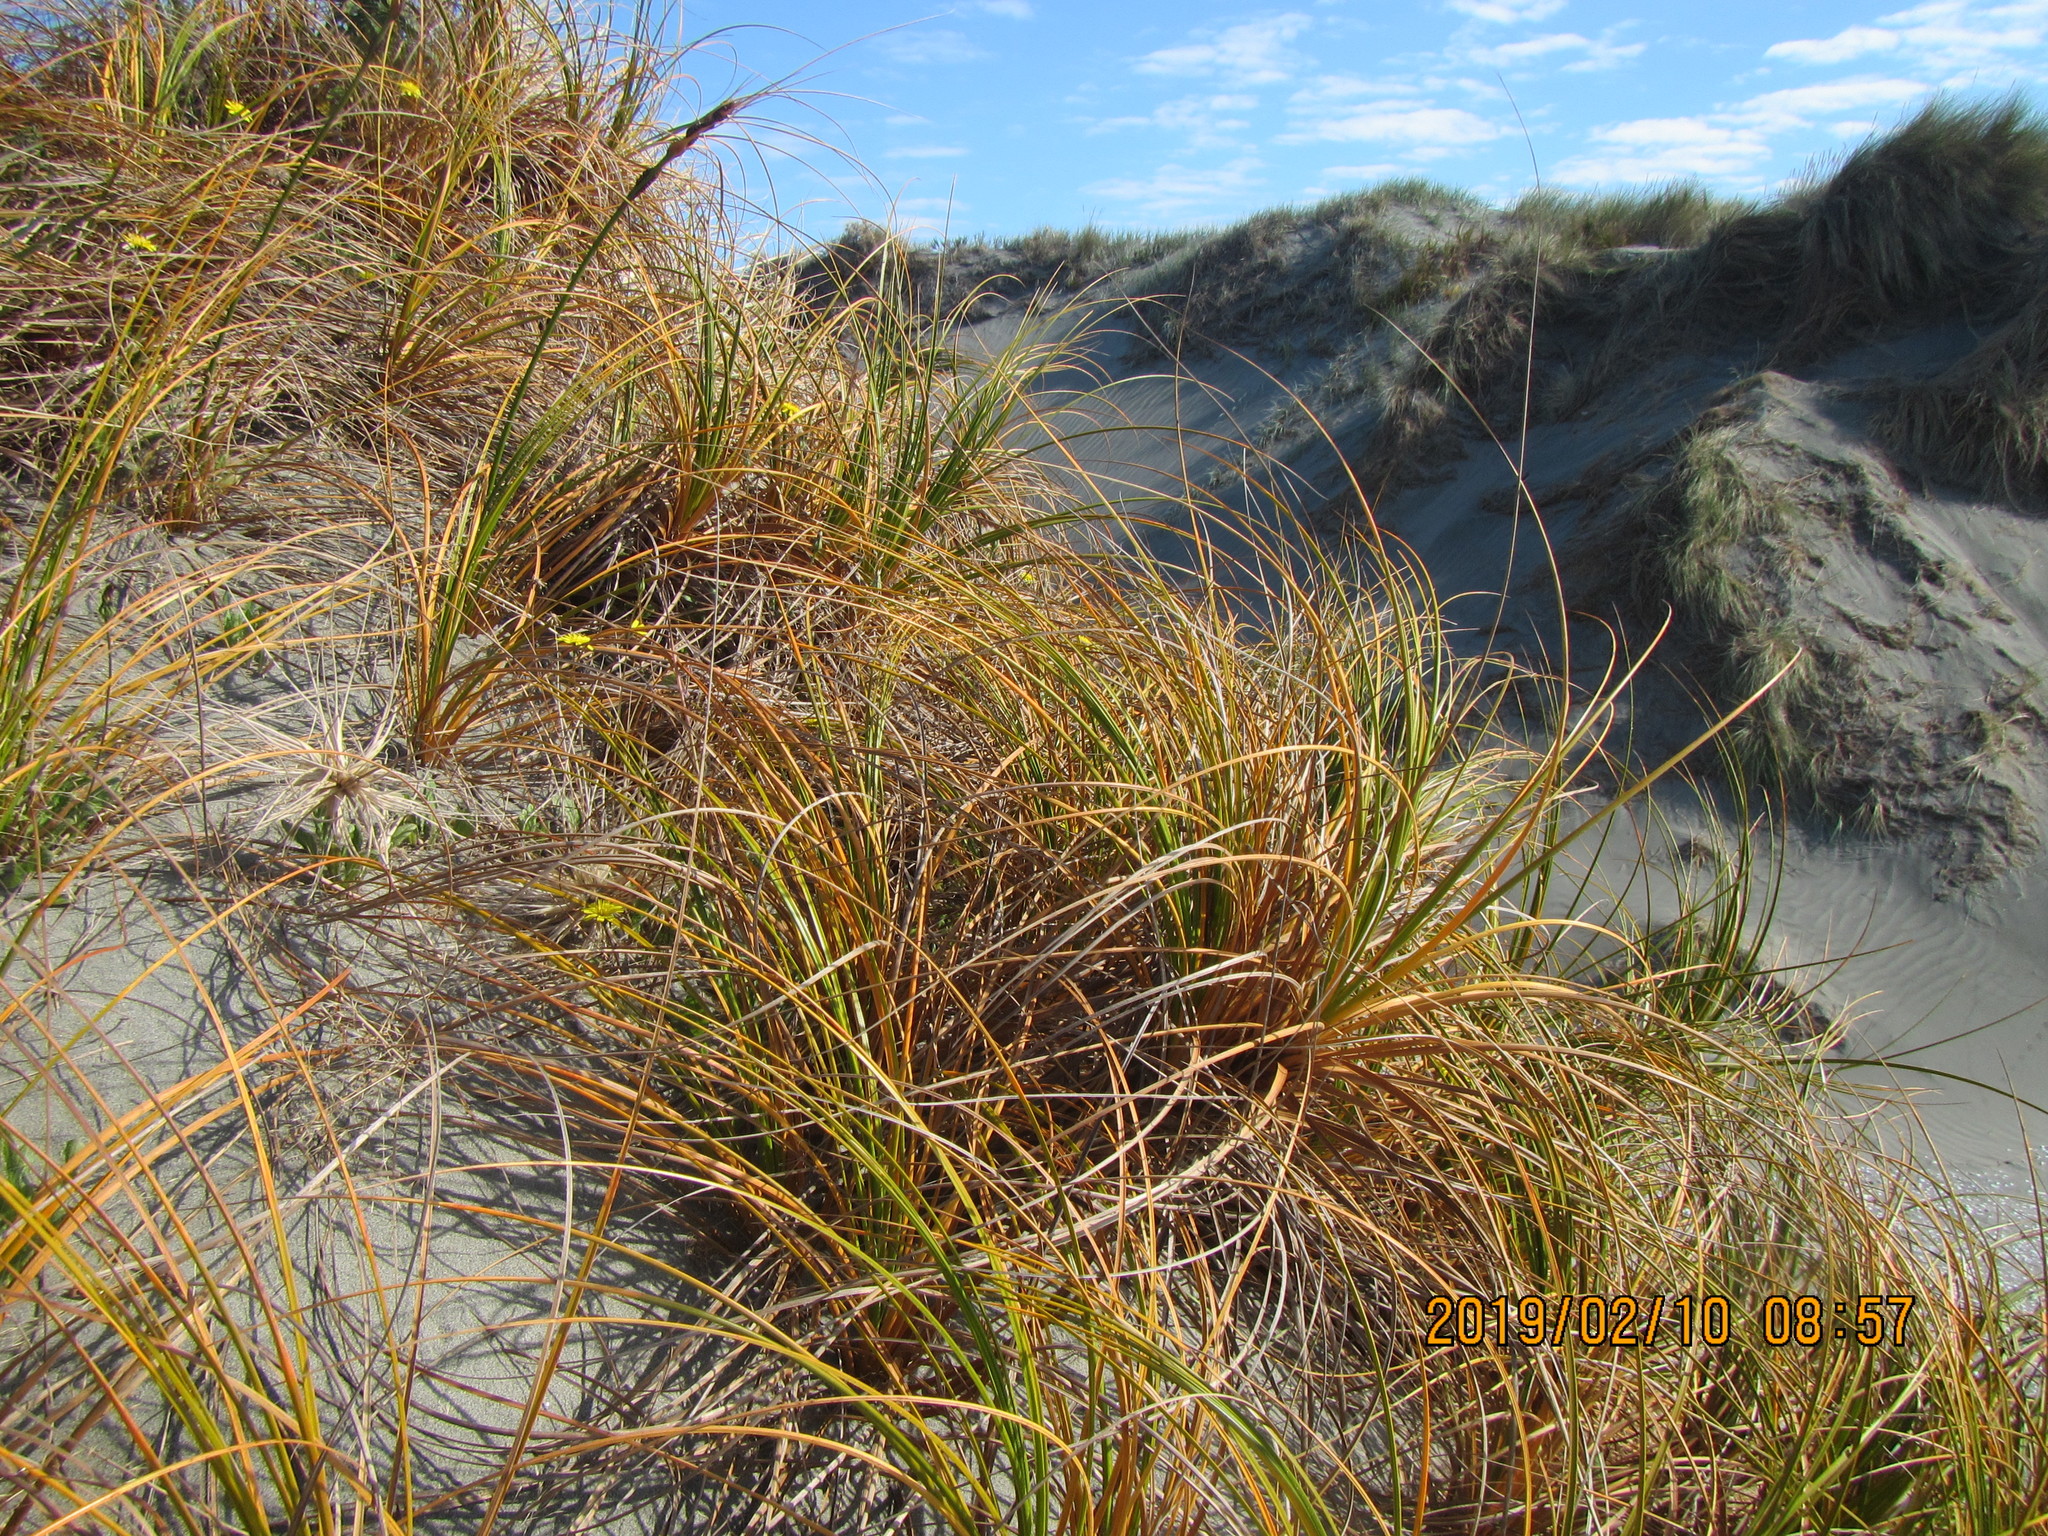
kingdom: Plantae
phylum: Tracheophyta
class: Liliopsida
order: Poales
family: Cyperaceae
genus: Ficinia
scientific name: Ficinia spiralis
